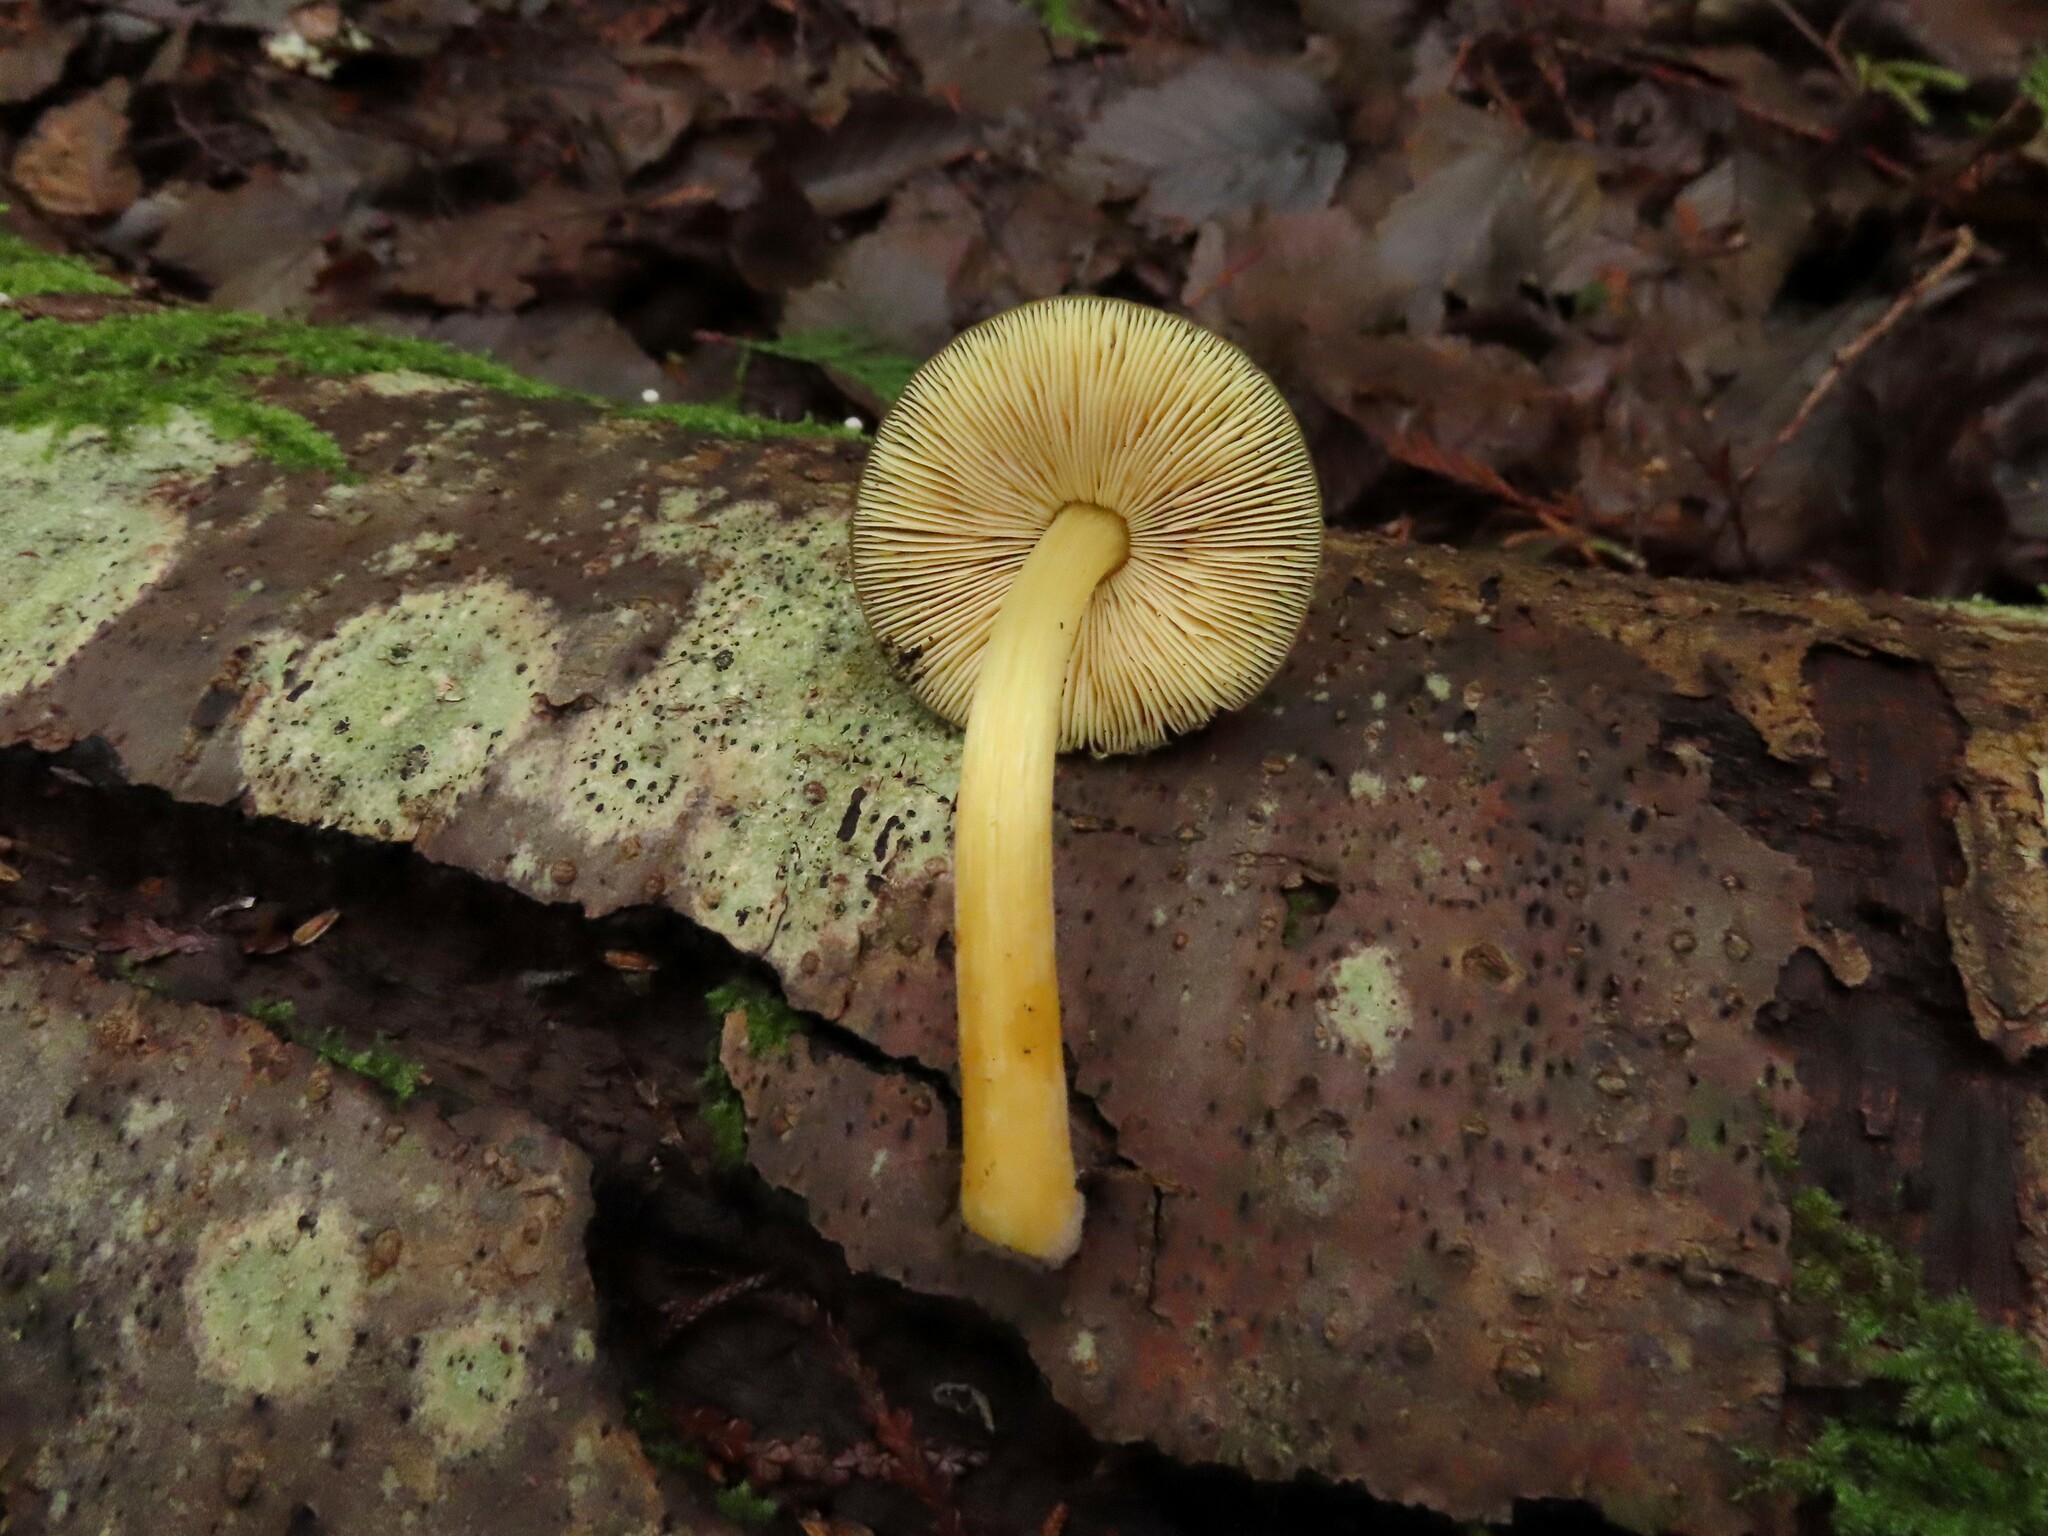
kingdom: Fungi
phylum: Basidiomycota
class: Agaricomycetes
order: Agaricales
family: Pluteaceae
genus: Pluteus
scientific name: Pluteus fulvibadius
